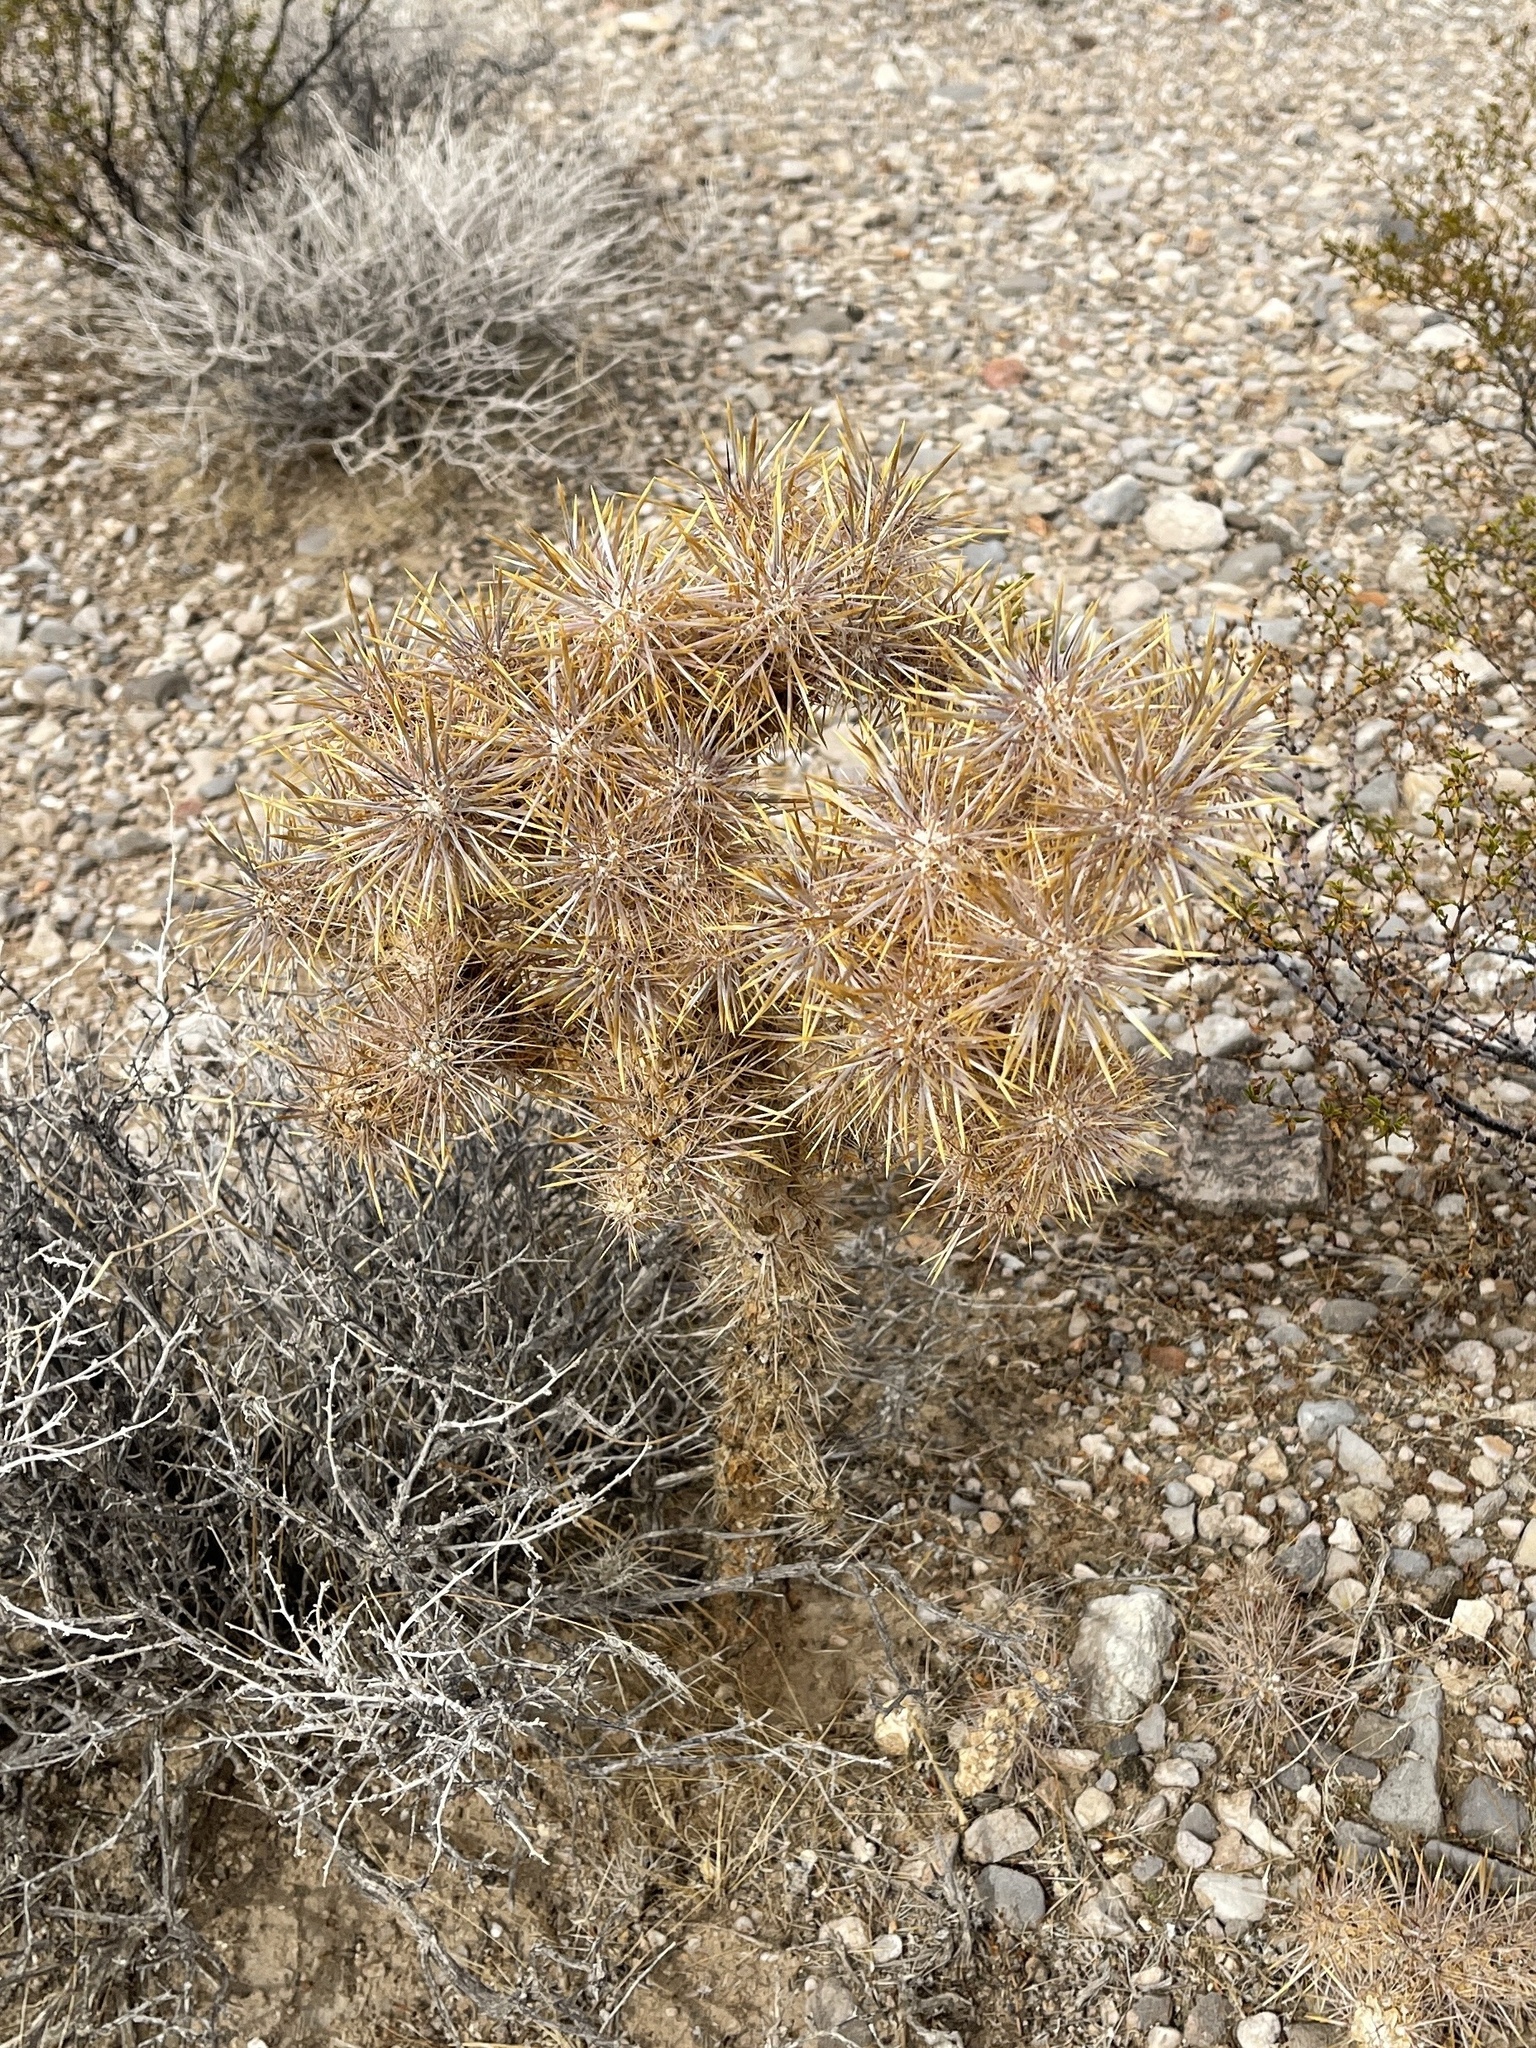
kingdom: Plantae
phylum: Tracheophyta
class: Magnoliopsida
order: Caryophyllales
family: Cactaceae
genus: Cylindropuntia
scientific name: Cylindropuntia echinocarpa
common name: Ground cholla
